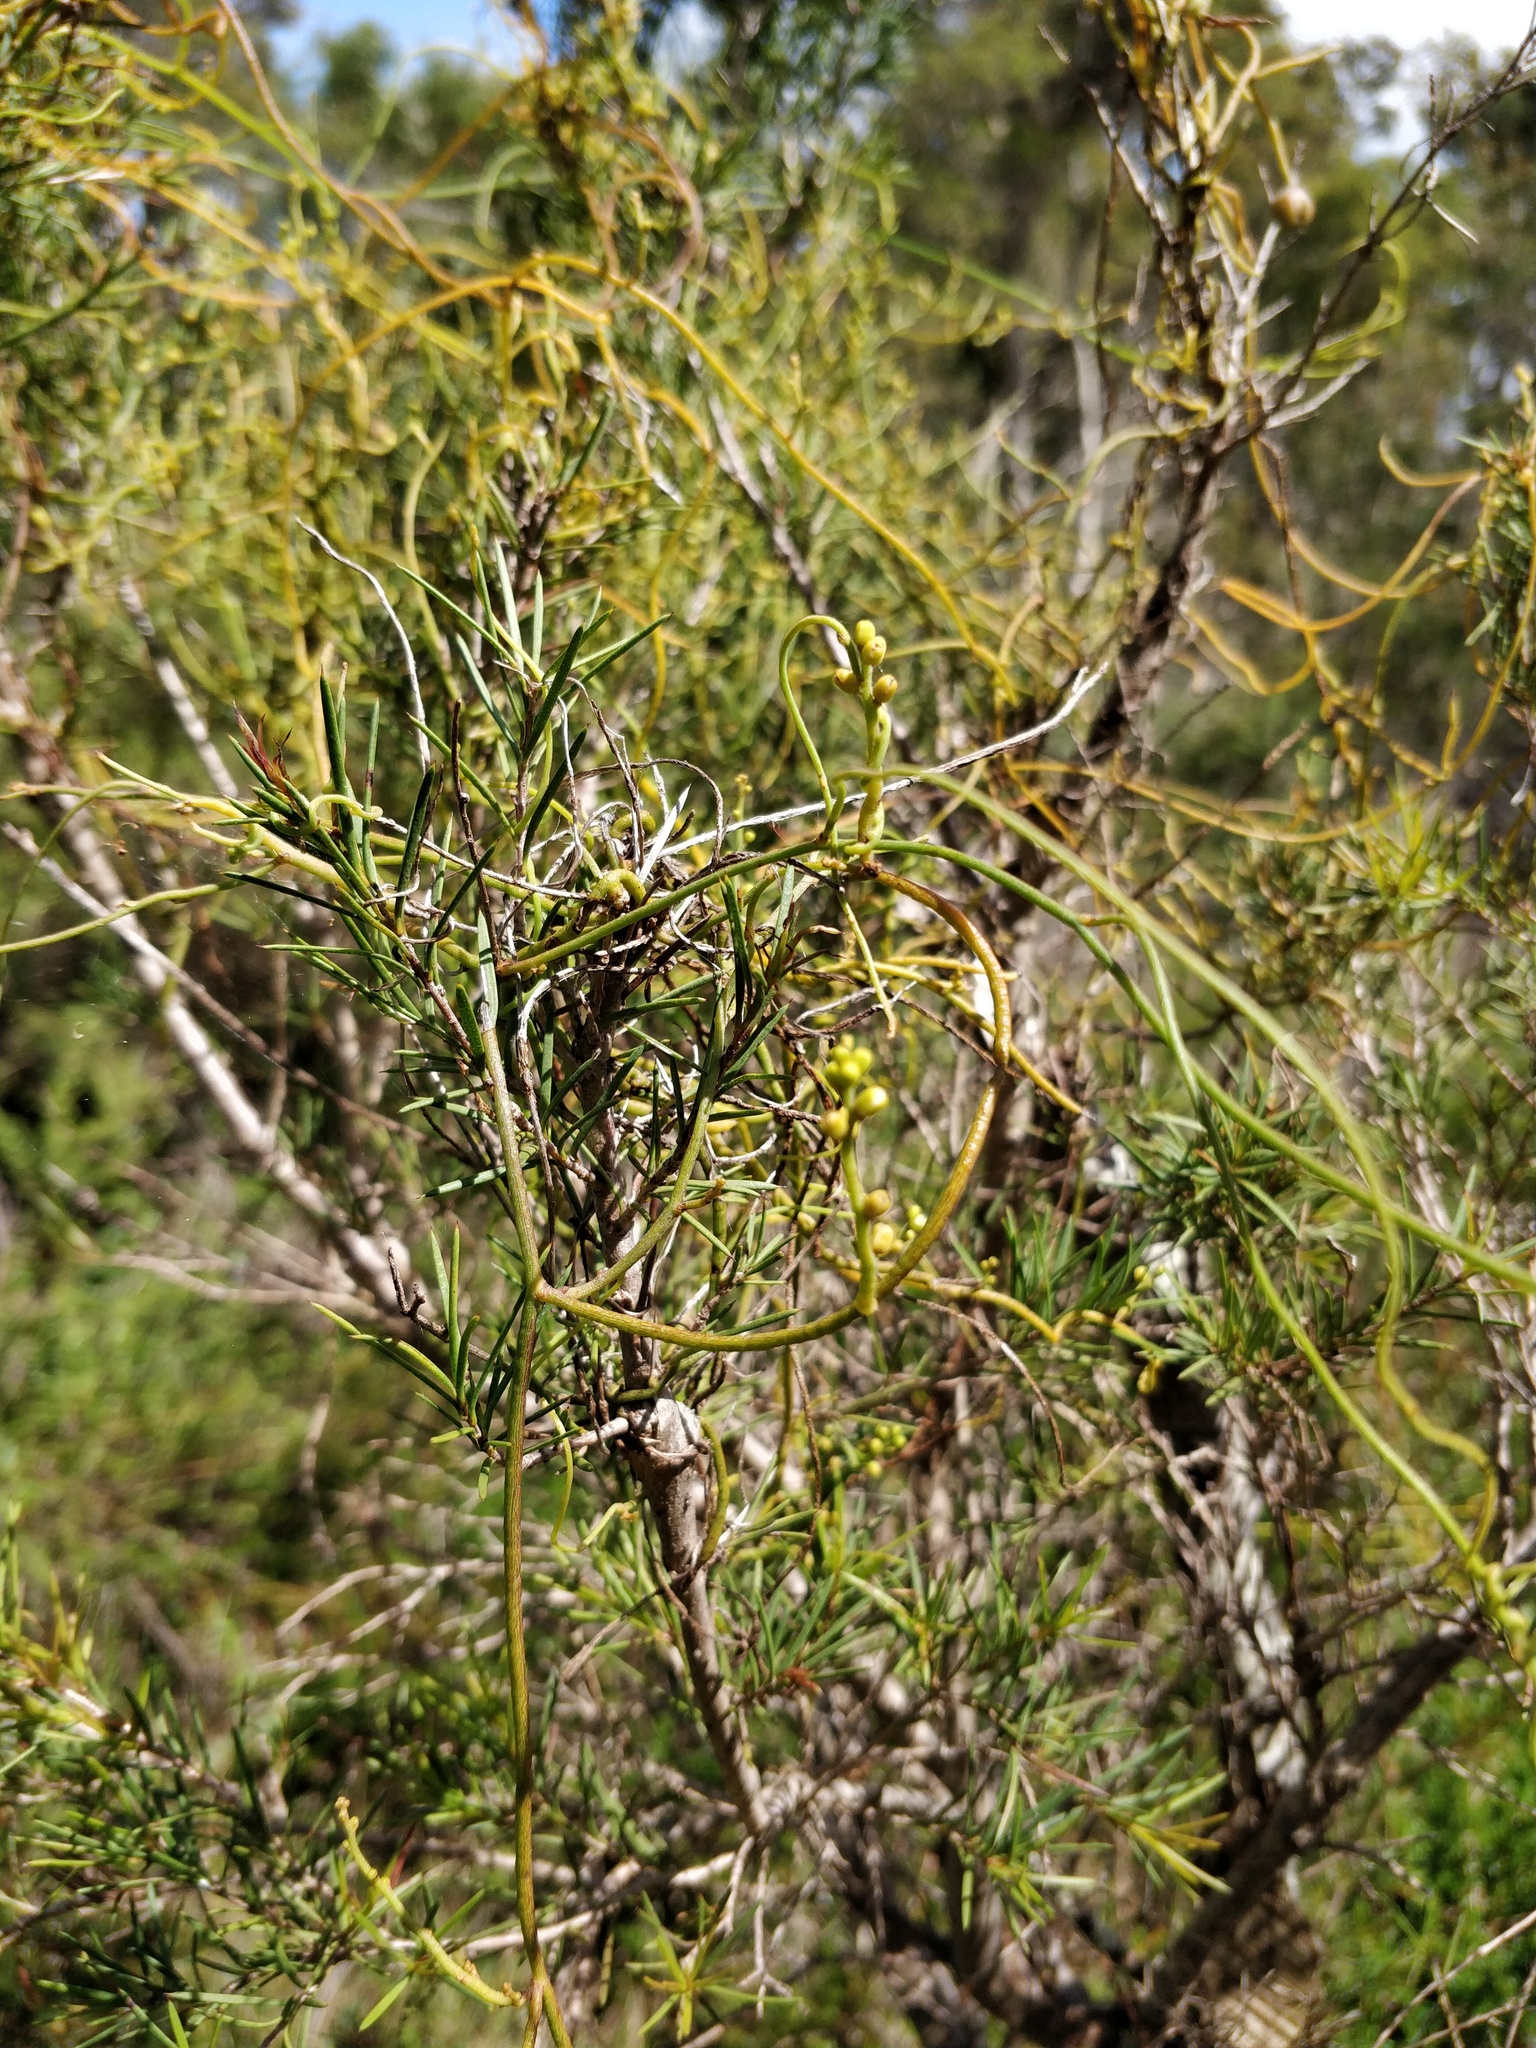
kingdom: Plantae
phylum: Tracheophyta
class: Magnoliopsida
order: Laurales
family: Lauraceae
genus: Cassytha
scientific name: Cassytha pubescens
